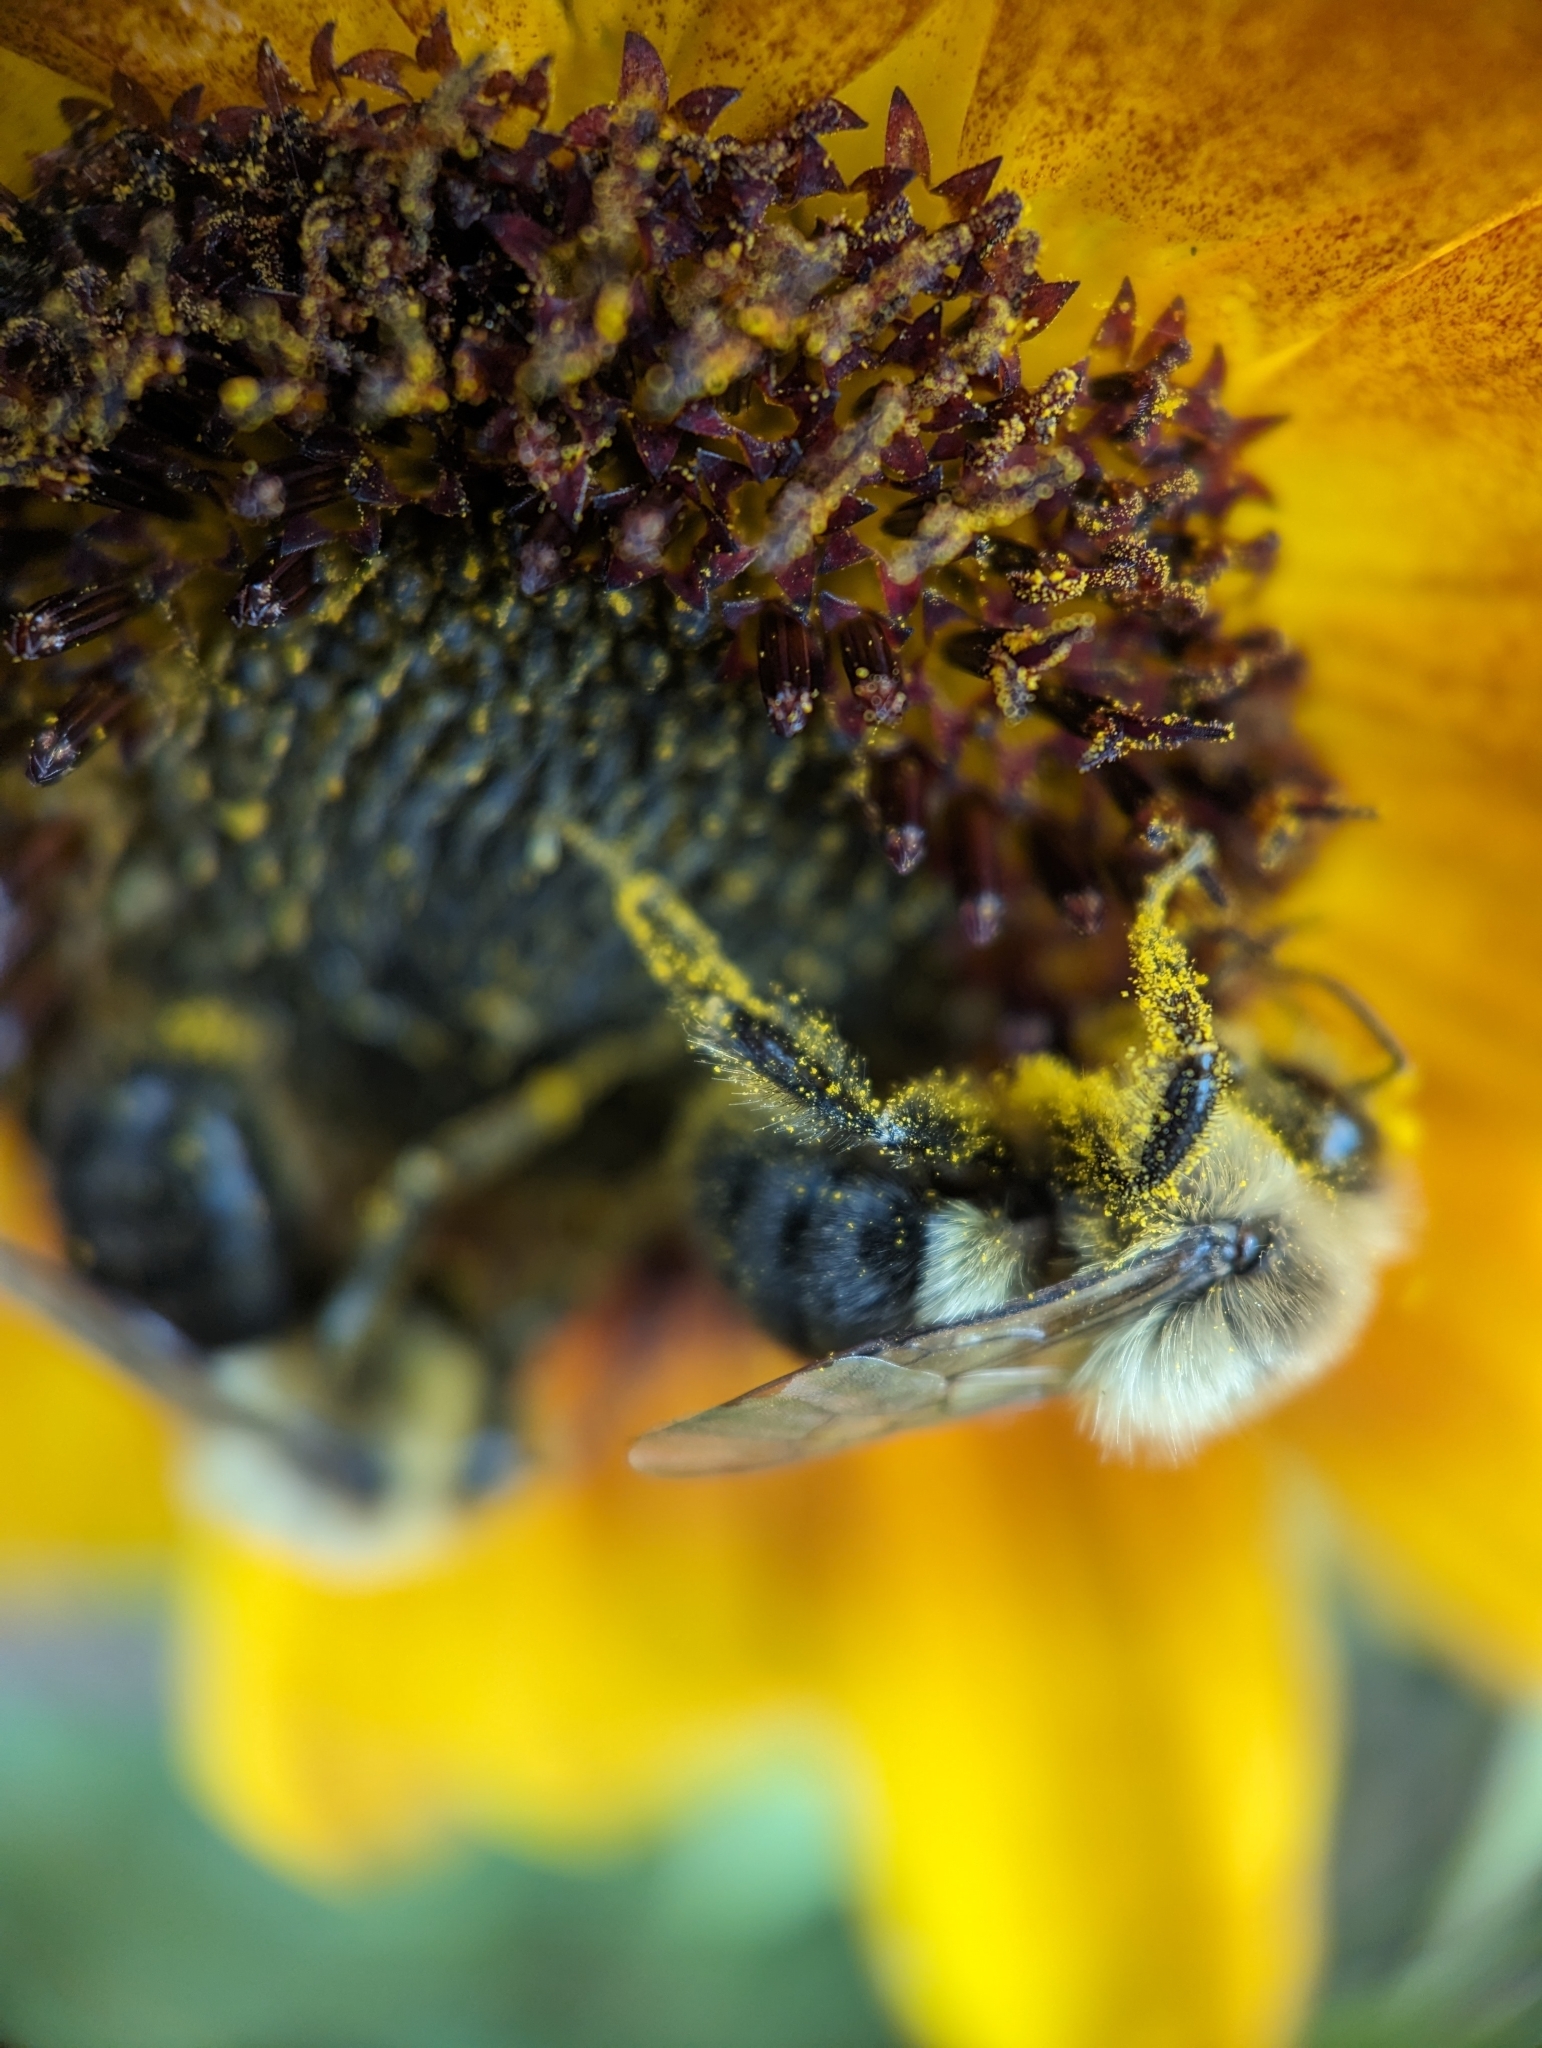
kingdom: Animalia
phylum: Arthropoda
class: Insecta
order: Hymenoptera
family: Apidae
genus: Bombus
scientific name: Bombus impatiens
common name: Common eastern bumble bee
